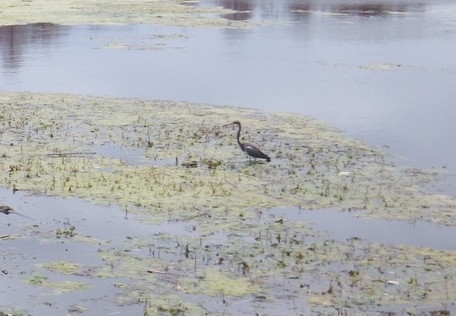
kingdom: Animalia
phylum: Chordata
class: Aves
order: Pelecaniformes
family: Ardeidae
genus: Egretta
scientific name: Egretta tricolor
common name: Tricolored heron
